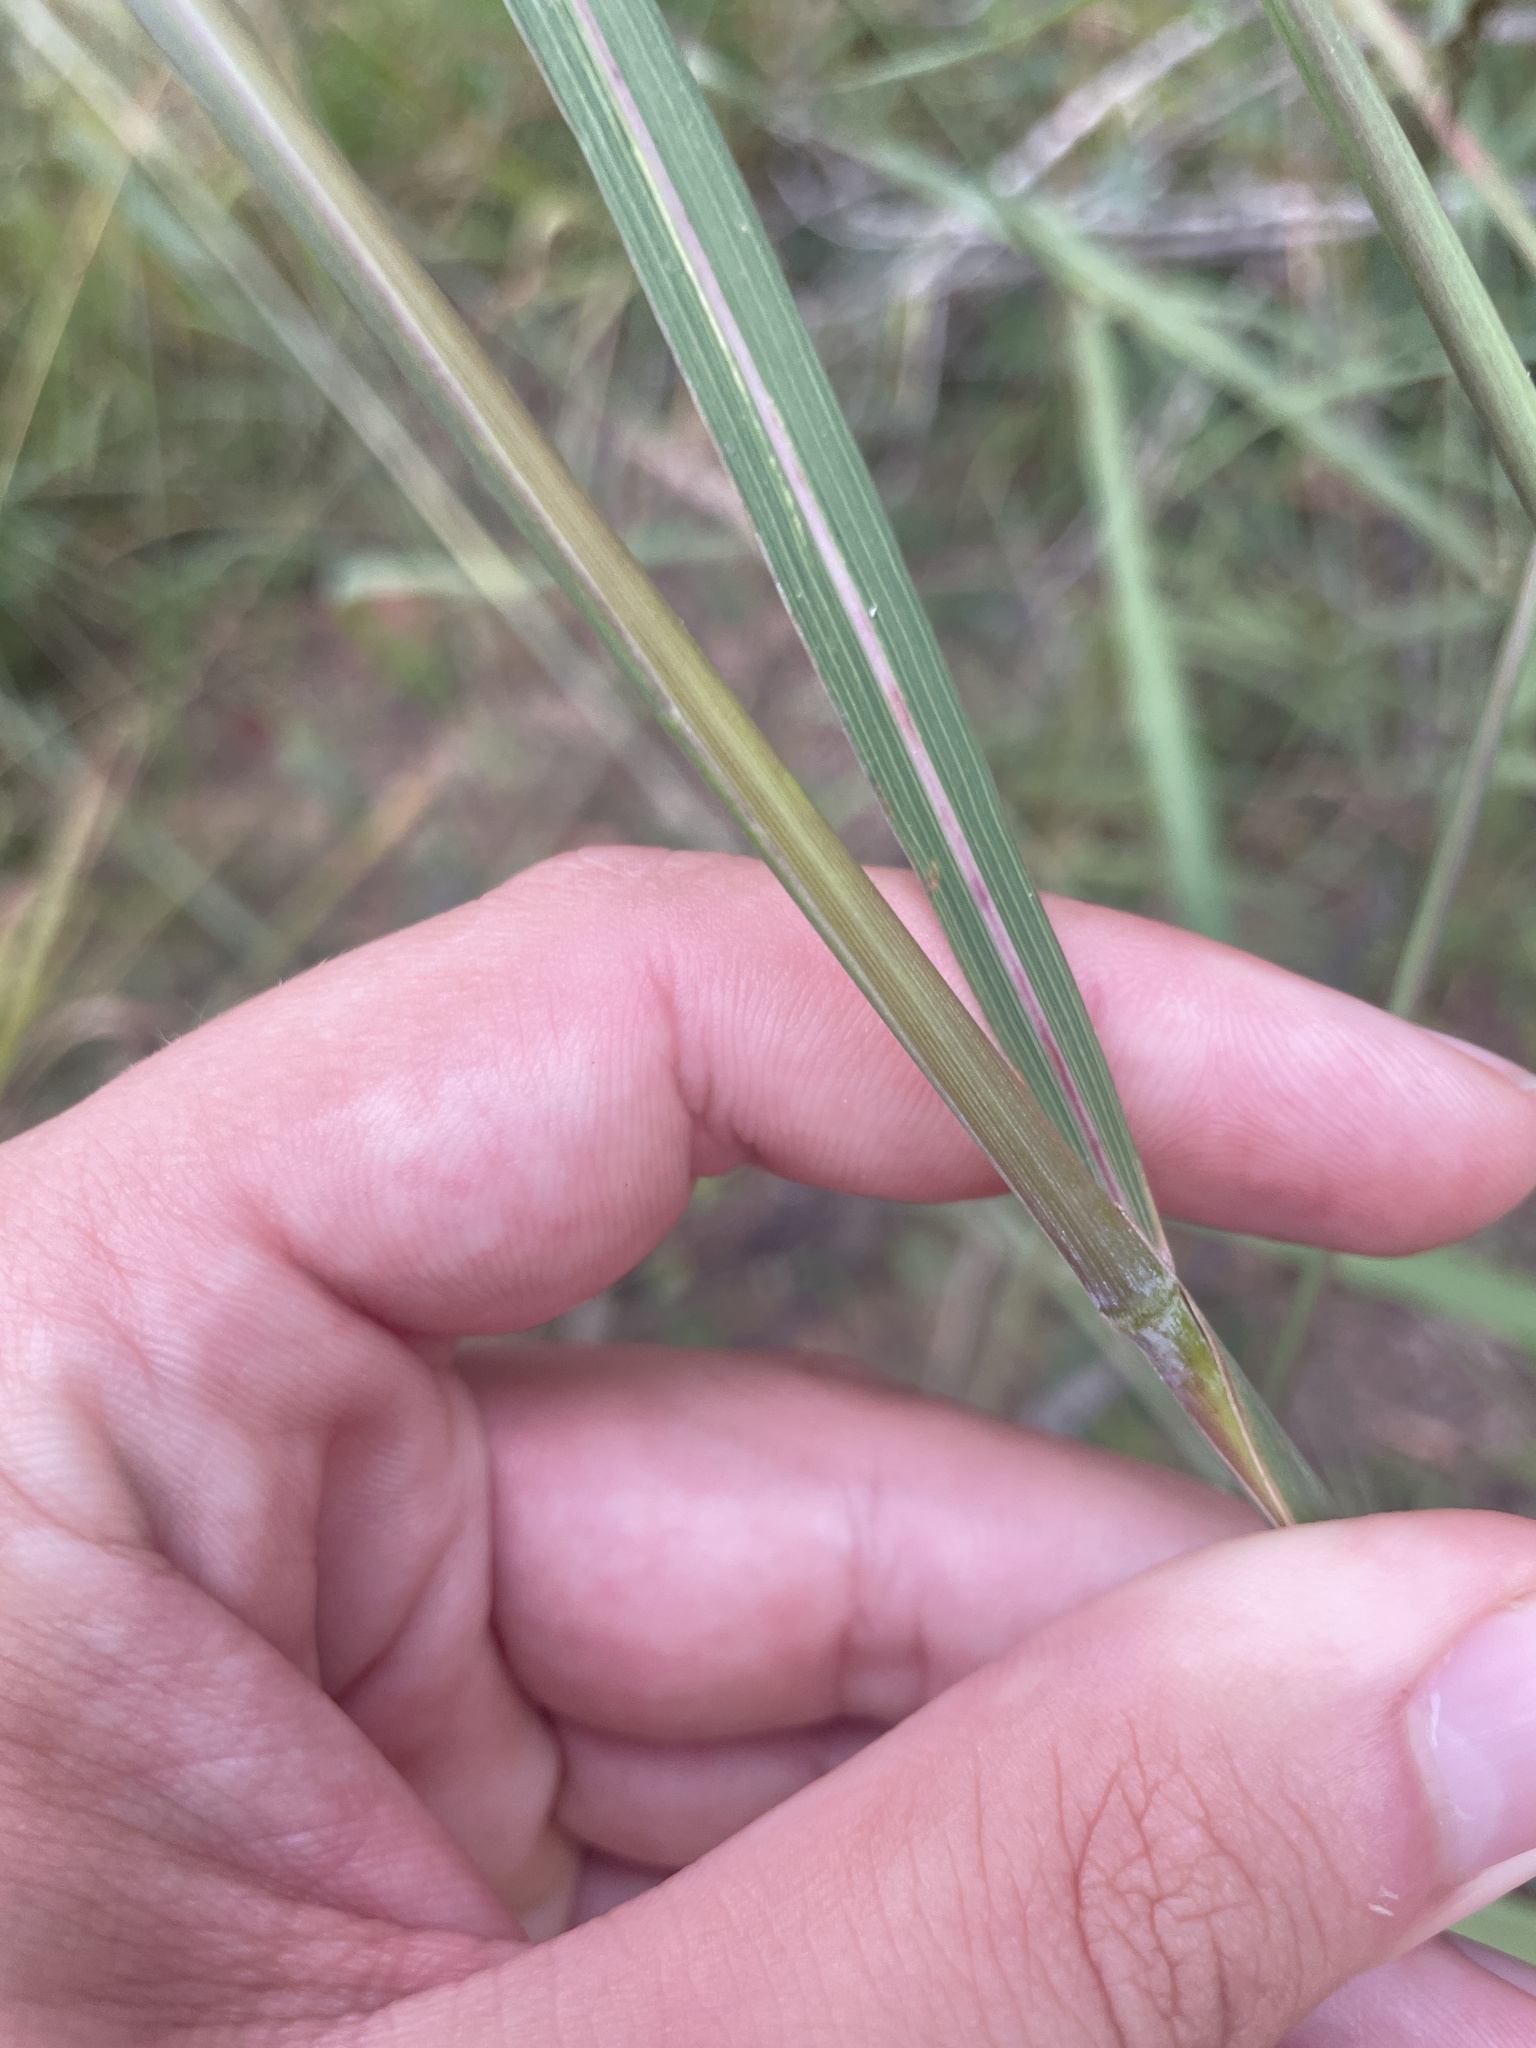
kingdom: Plantae
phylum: Tracheophyta
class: Liliopsida
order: Poales
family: Poaceae
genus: Sorghastrum
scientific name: Sorghastrum elliottii
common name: Slender indian grass
